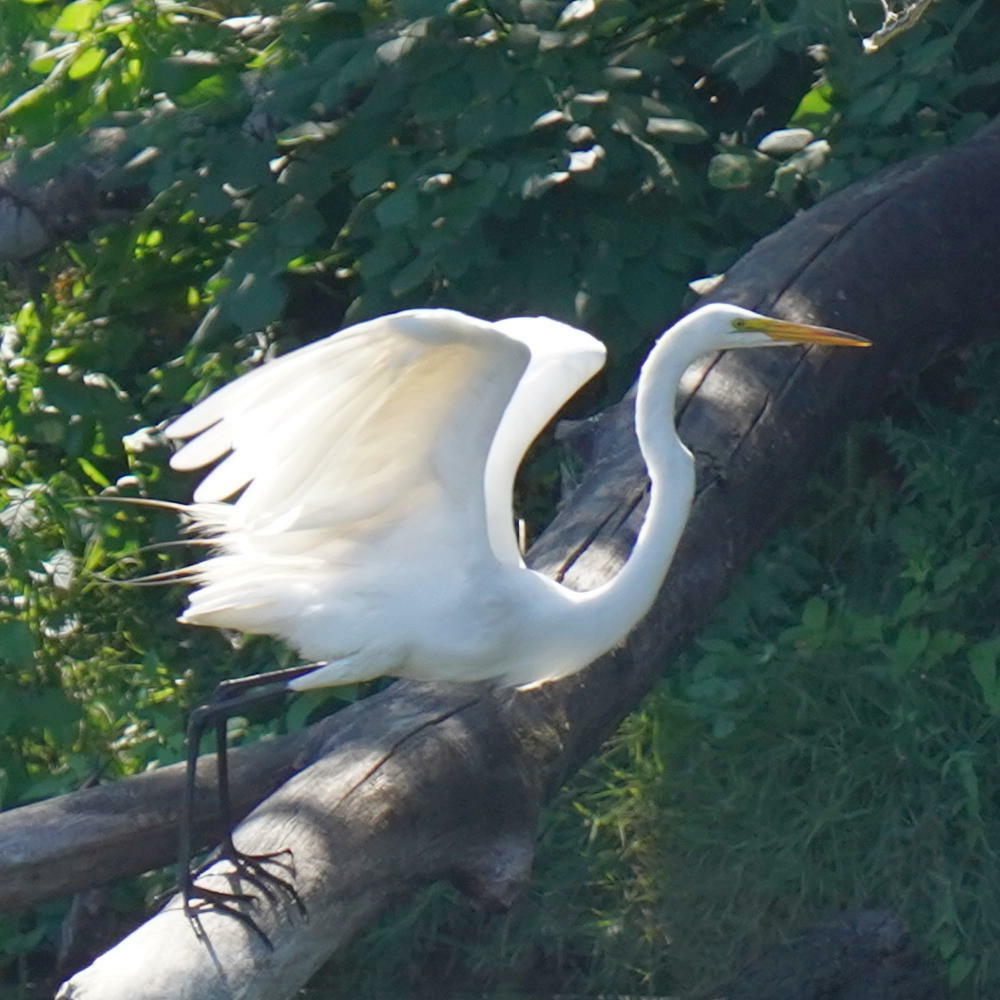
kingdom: Animalia
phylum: Chordata
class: Aves
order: Pelecaniformes
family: Ardeidae
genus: Ardea
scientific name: Ardea alba
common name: Great egret
